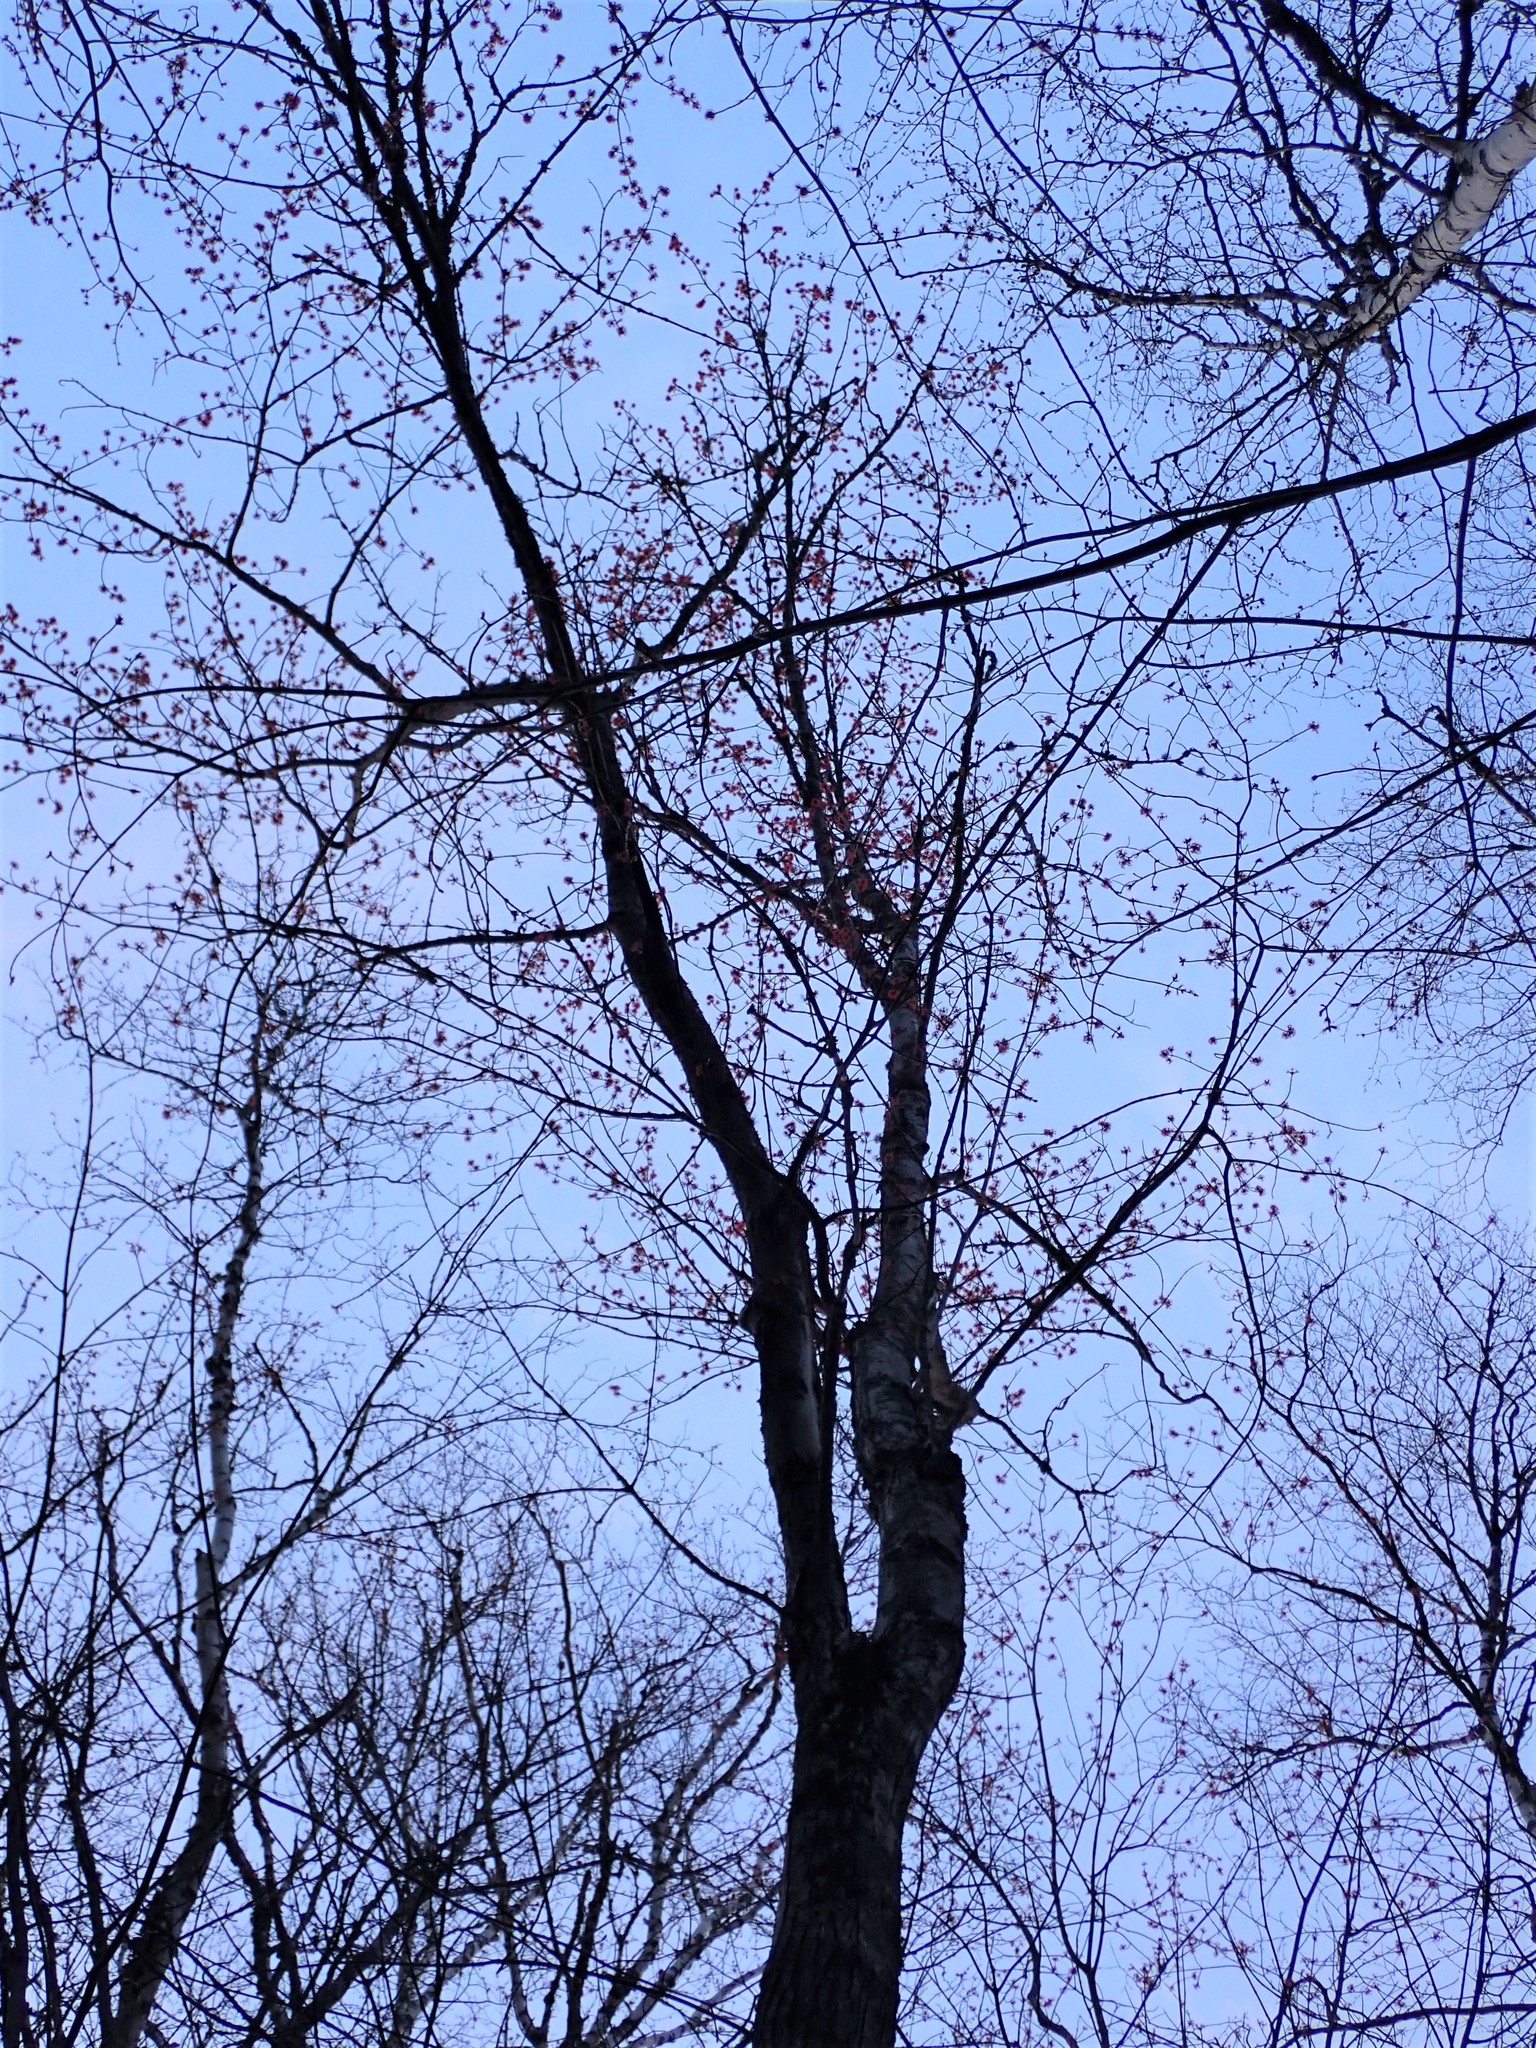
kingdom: Plantae
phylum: Tracheophyta
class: Magnoliopsida
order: Sapindales
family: Sapindaceae
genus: Acer
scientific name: Acer rubrum
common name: Red maple
